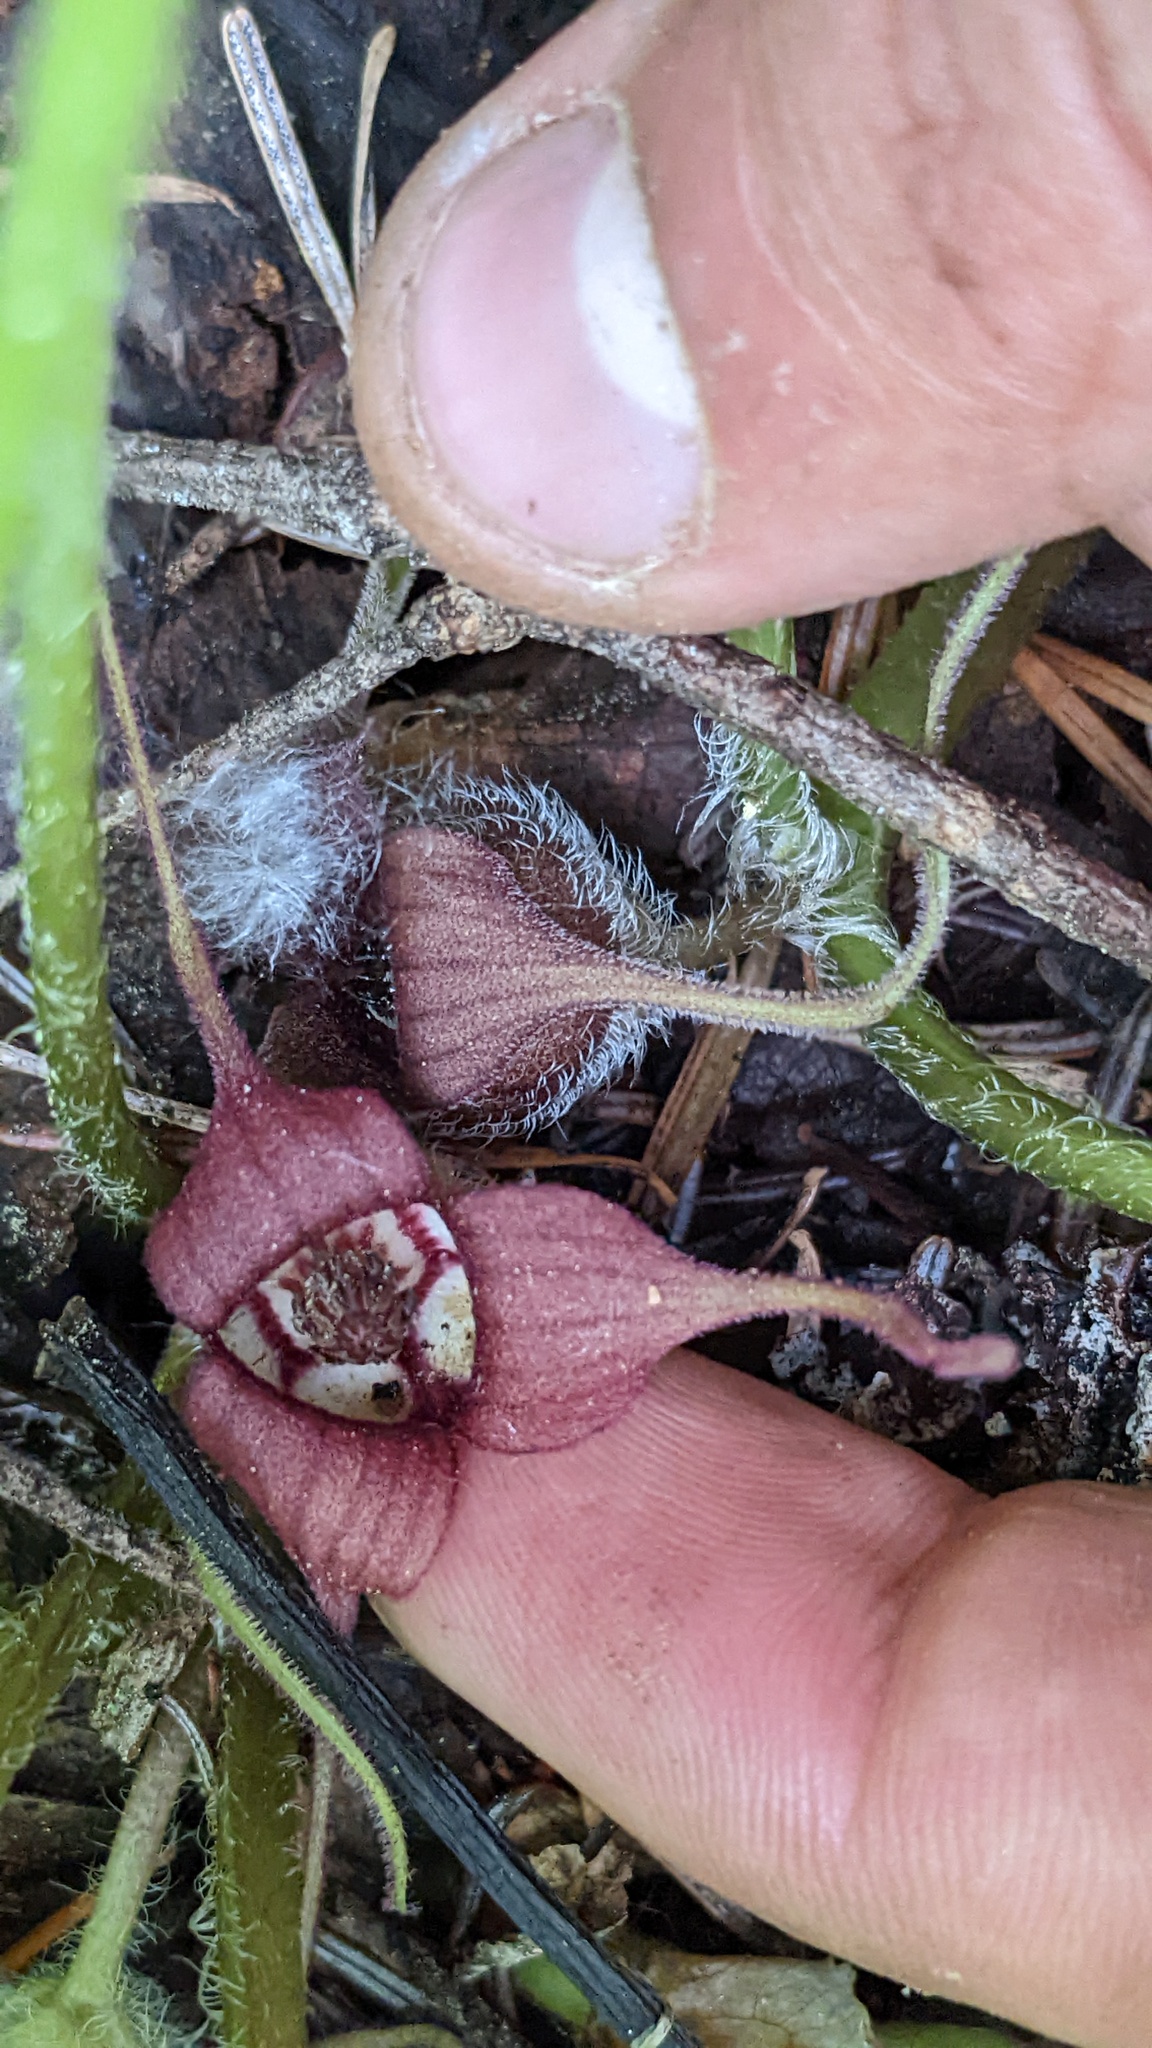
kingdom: Plantae
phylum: Tracheophyta
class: Magnoliopsida
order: Piperales
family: Aristolochiaceae
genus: Asarum
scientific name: Asarum caudatum
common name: Wild ginger
